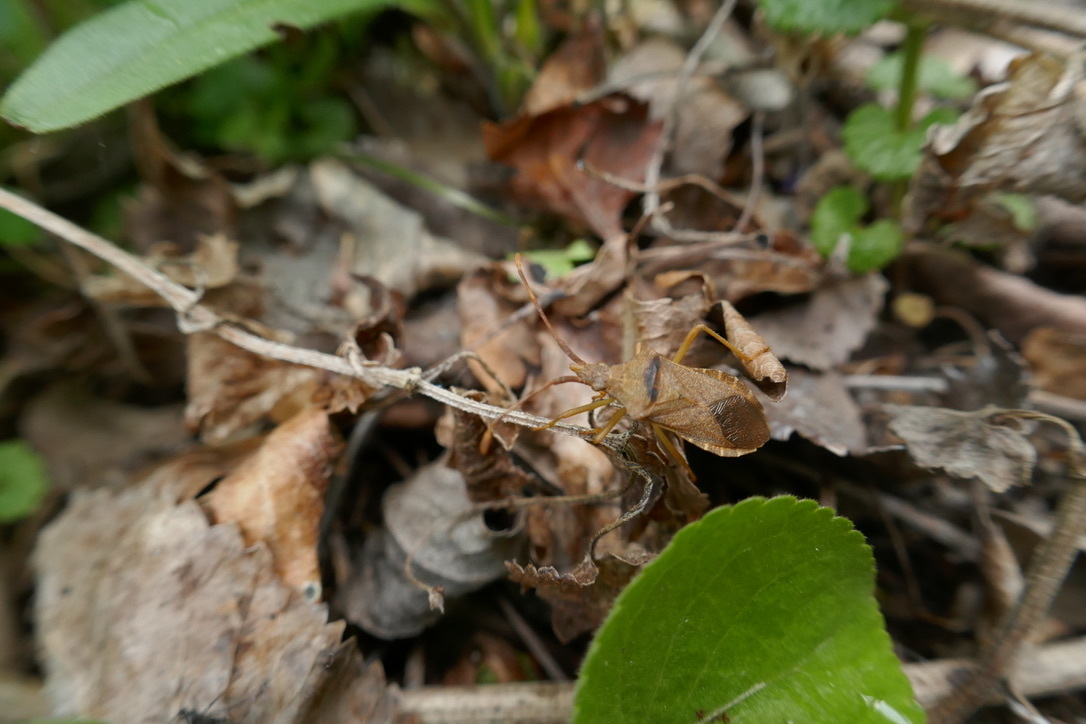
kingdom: Animalia
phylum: Arthropoda
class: Insecta
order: Hemiptera
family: Coreidae
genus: Gonocerus
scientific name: Gonocerus acuteangulatus
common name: Box bug
